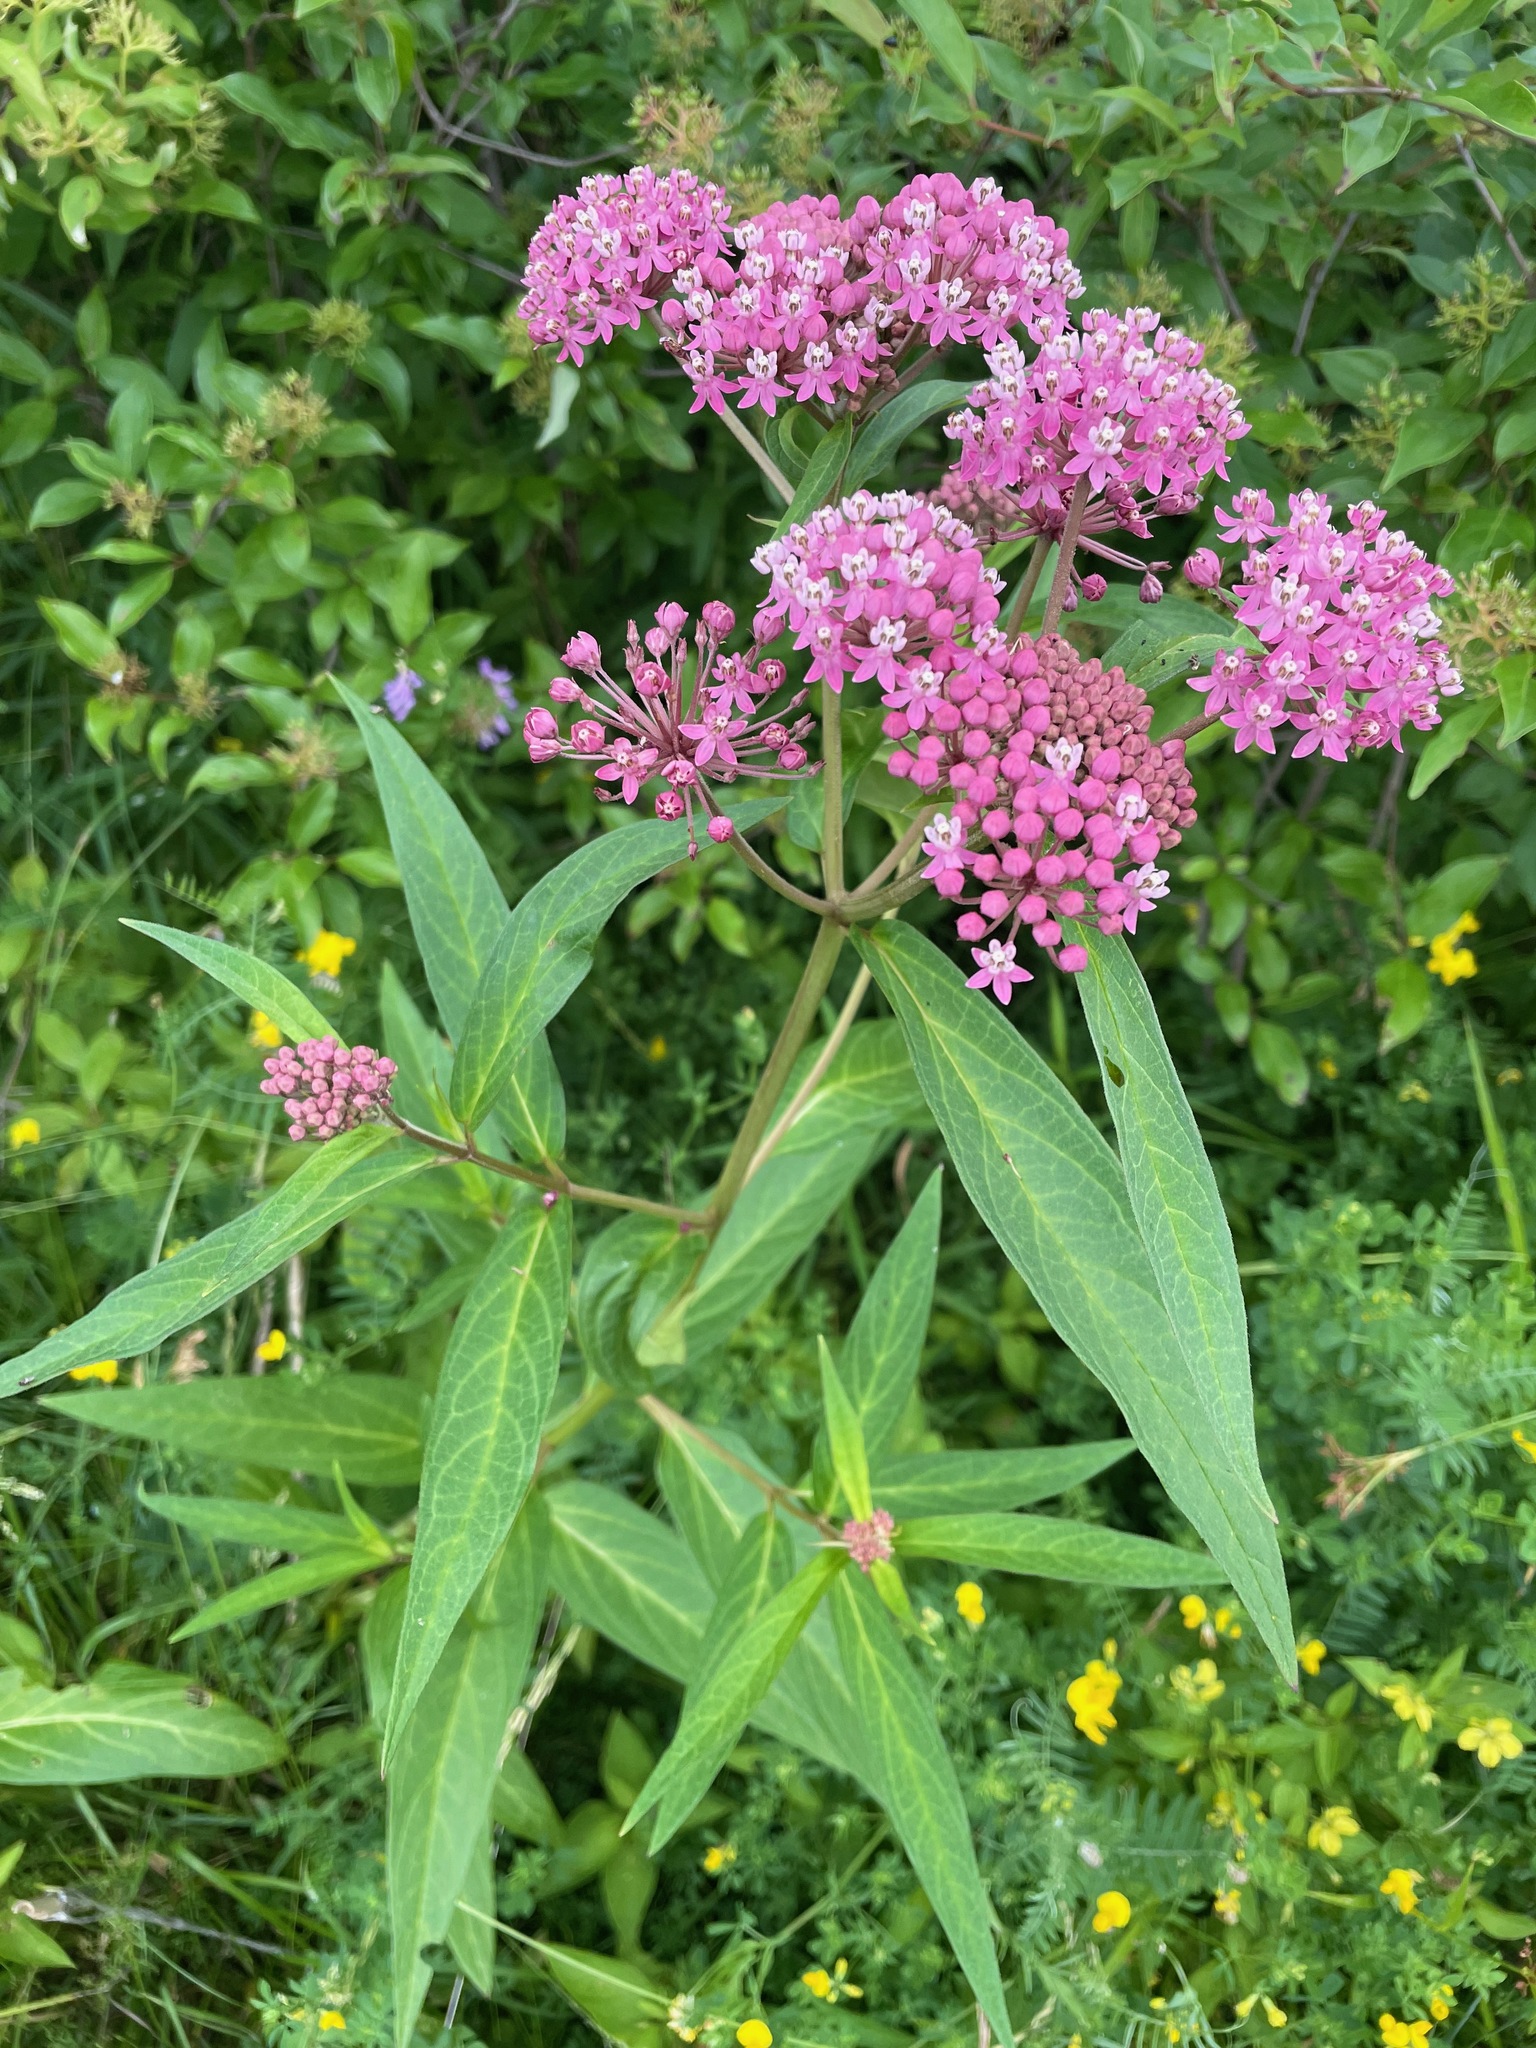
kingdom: Plantae
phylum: Tracheophyta
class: Magnoliopsida
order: Gentianales
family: Apocynaceae
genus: Asclepias
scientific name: Asclepias incarnata
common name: Swamp milkweed
